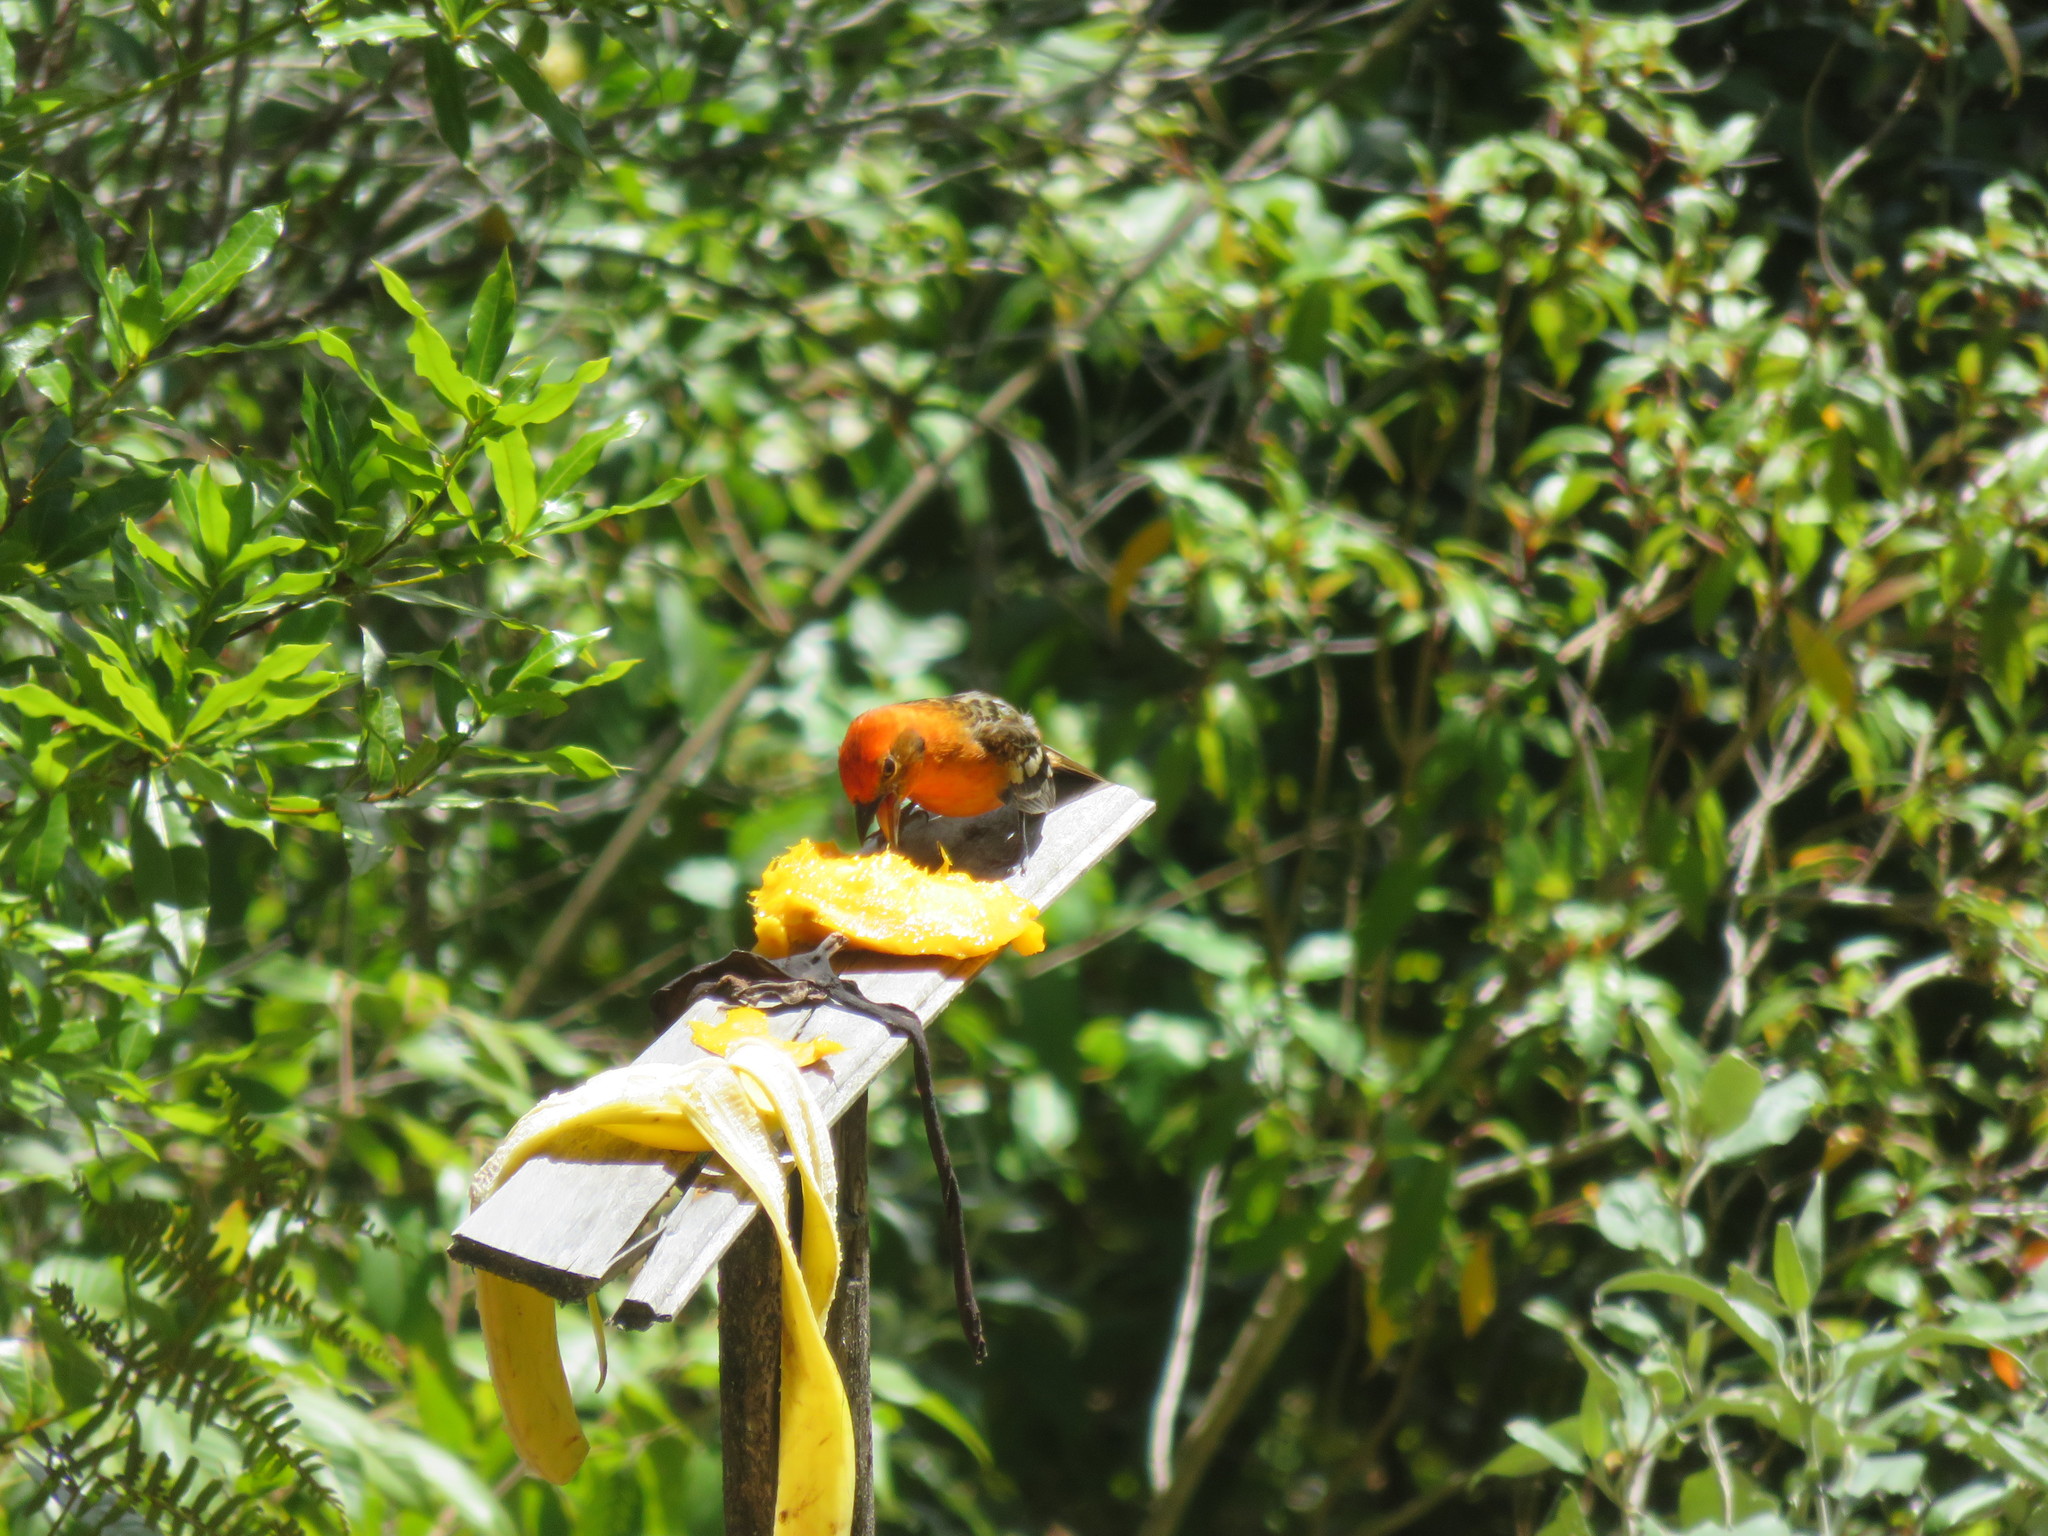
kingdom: Animalia
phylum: Chordata
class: Aves
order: Passeriformes
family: Cardinalidae
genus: Piranga
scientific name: Piranga bidentata
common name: Flame-colored tanager
